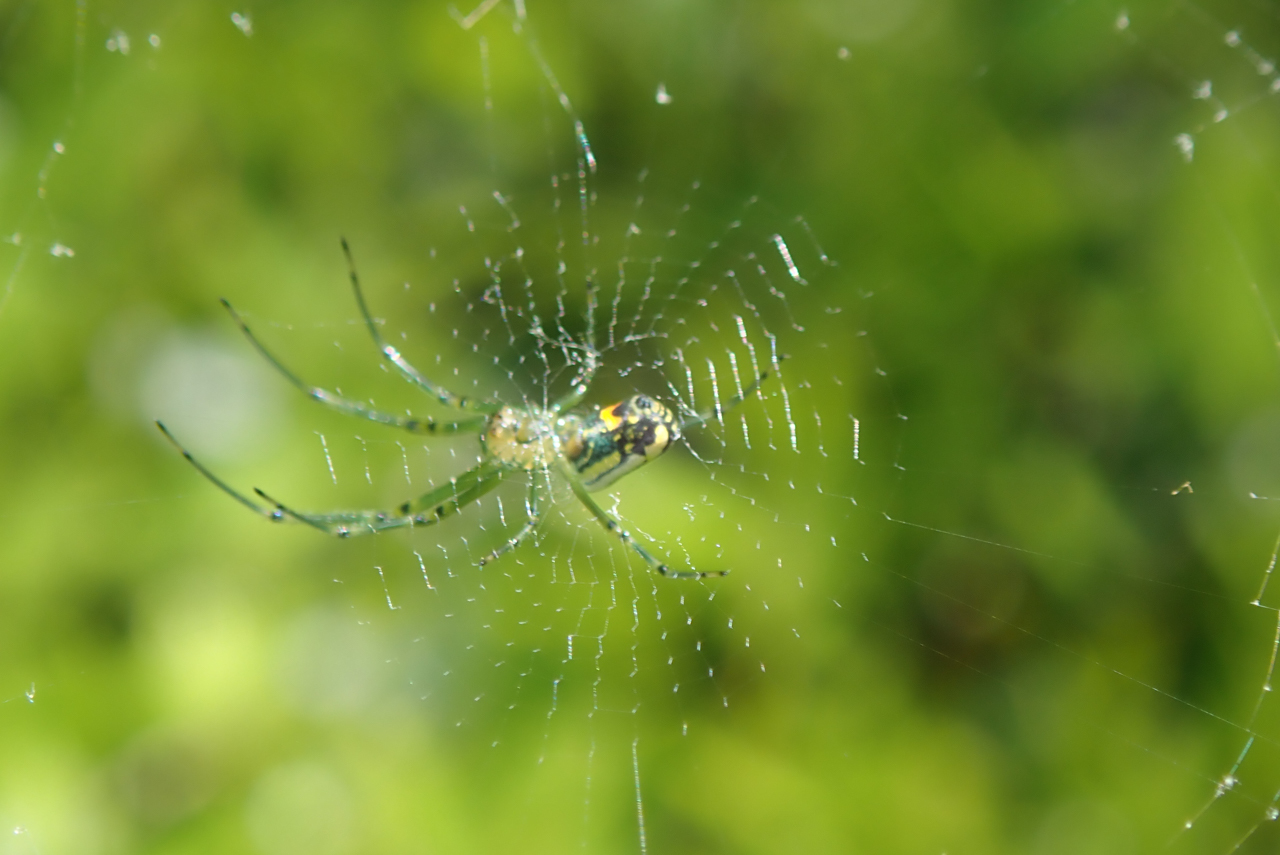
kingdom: Animalia
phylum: Arthropoda
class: Arachnida
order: Araneae
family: Tetragnathidae
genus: Leucauge
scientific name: Leucauge venusta
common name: Longjawed orb weavers
